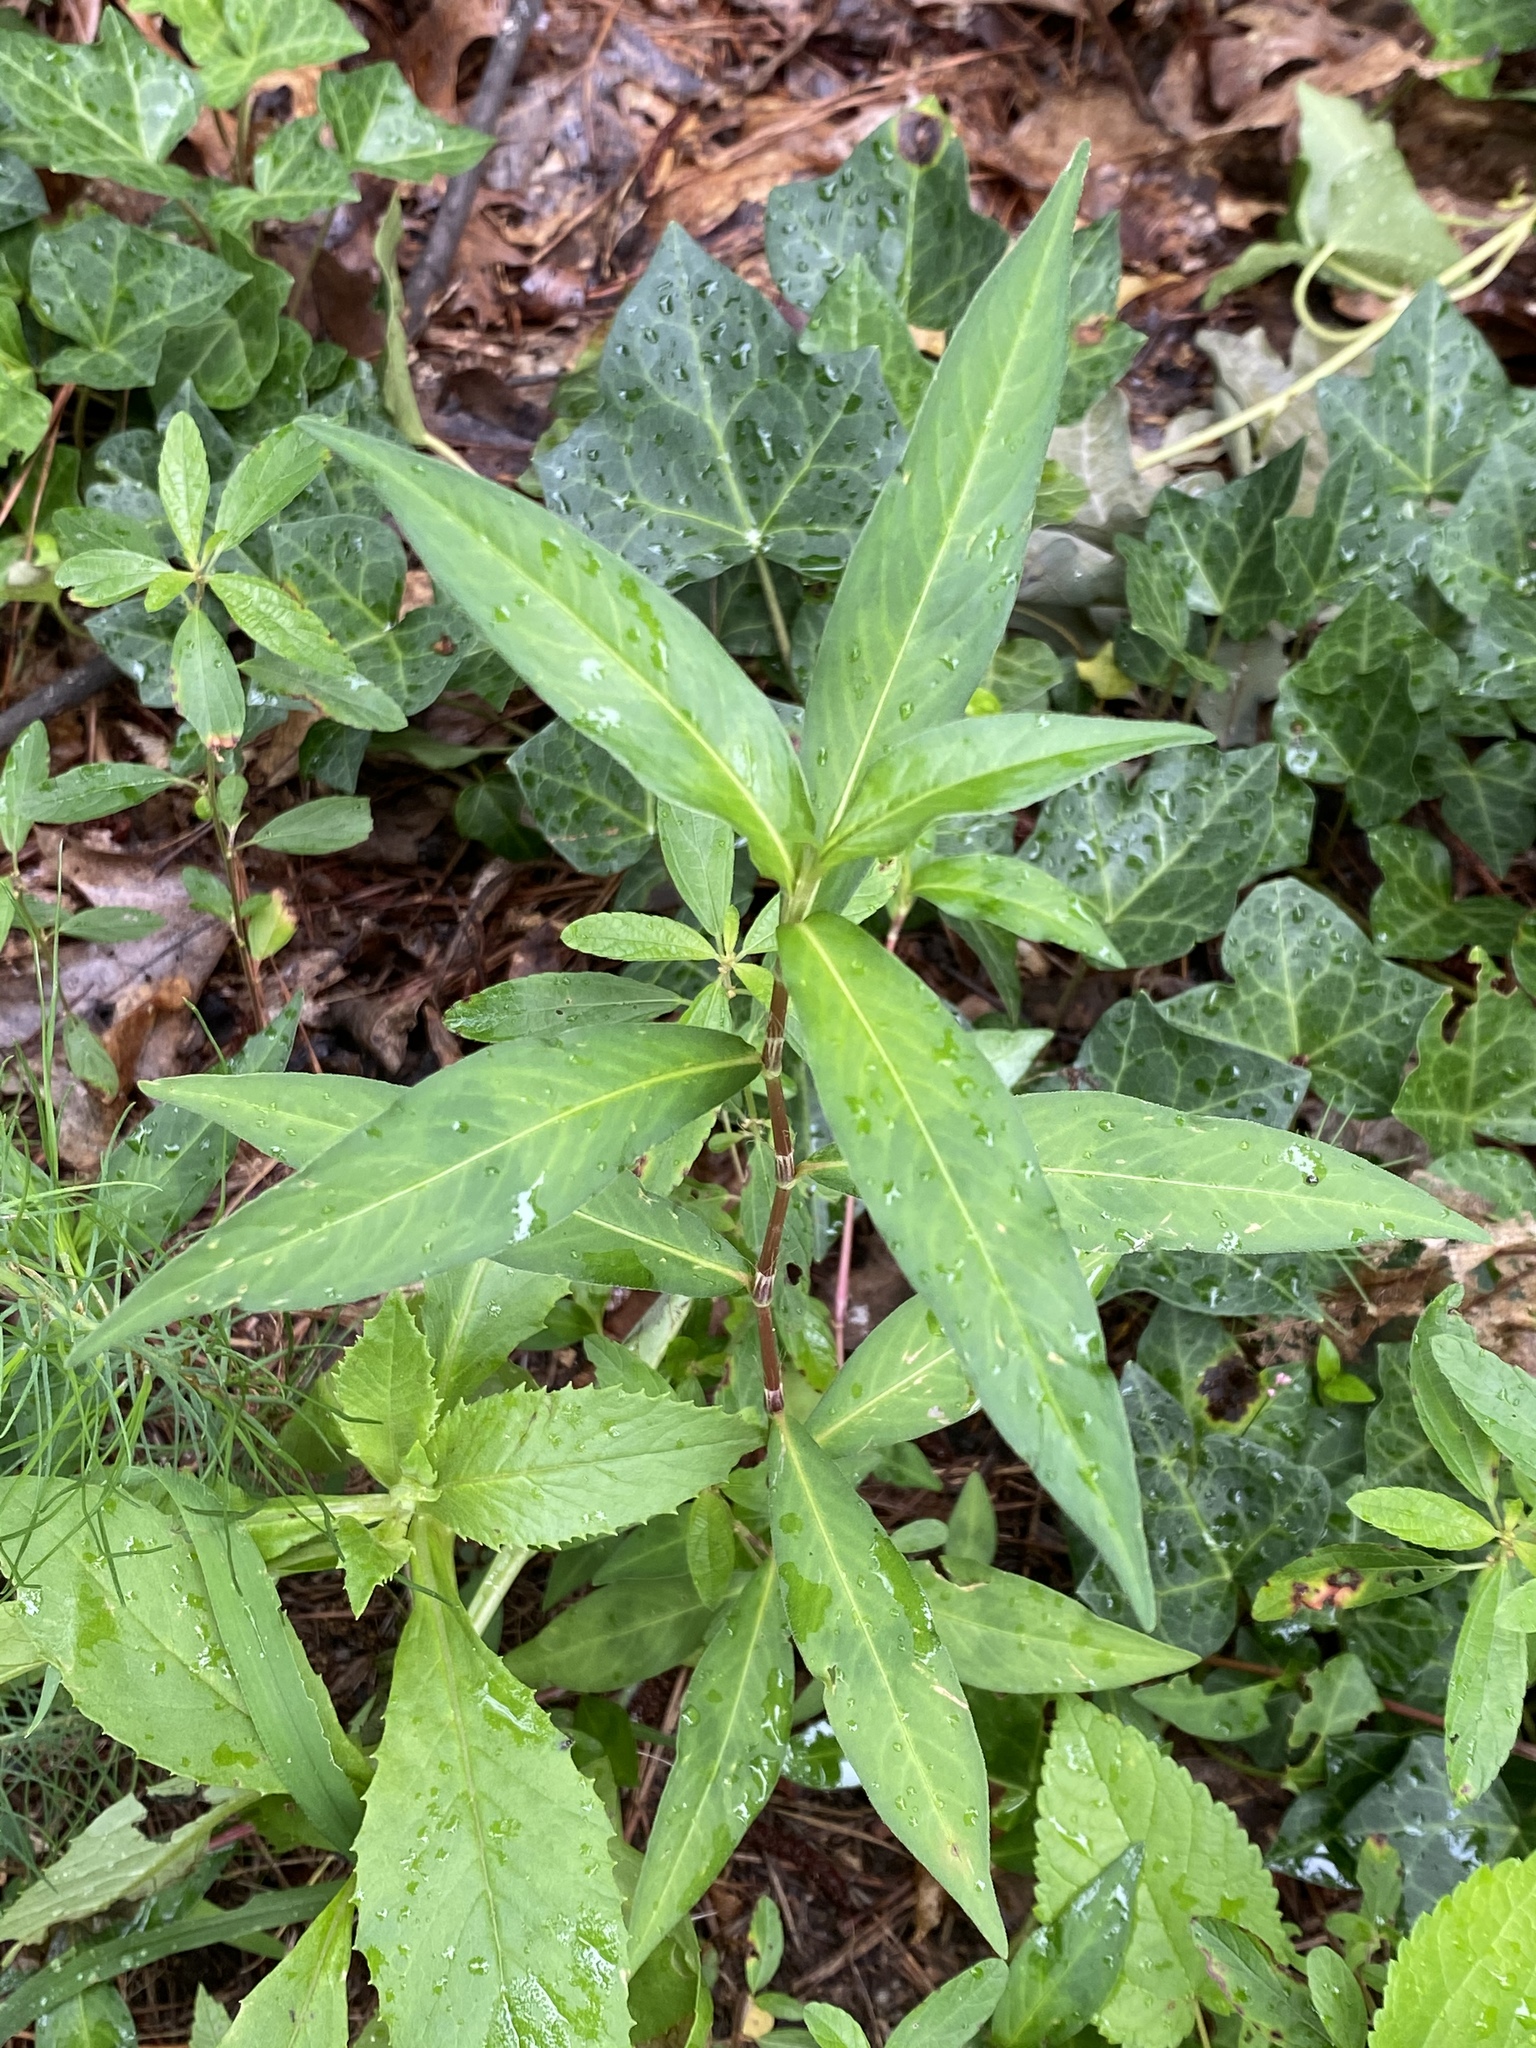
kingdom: Plantae
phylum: Tracheophyta
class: Magnoliopsida
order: Caryophyllales
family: Polygonaceae
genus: Persicaria
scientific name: Persicaria longiseta
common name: Bristly lady's-thumb
